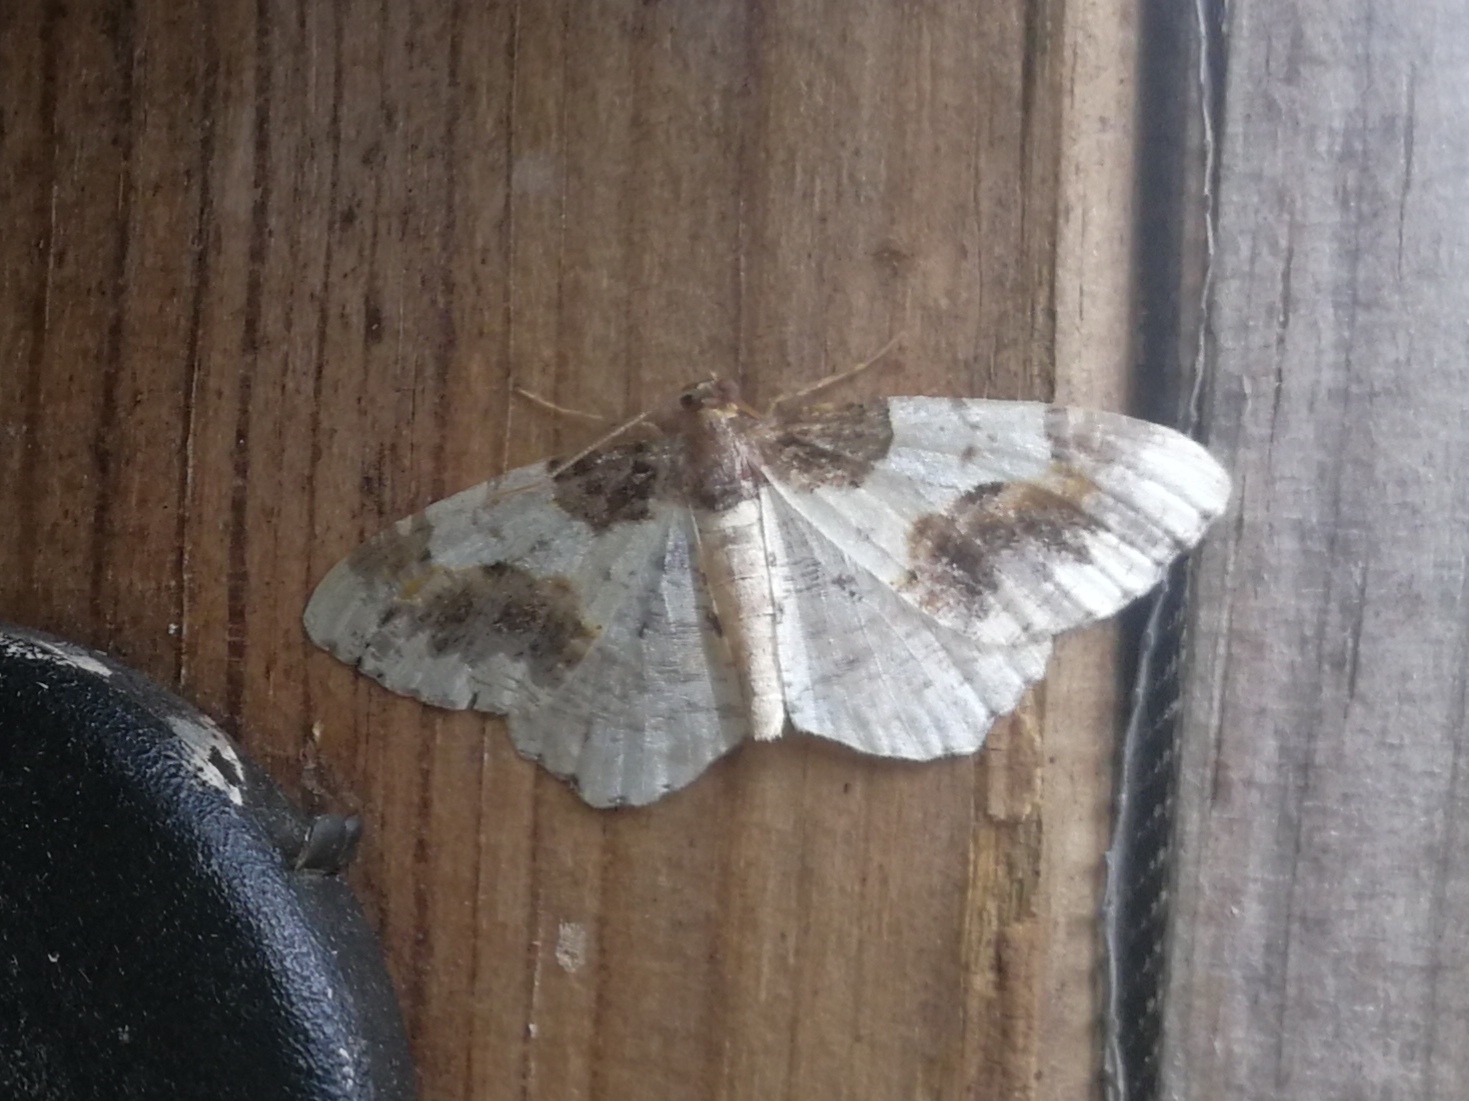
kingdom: Animalia
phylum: Arthropoda
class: Insecta
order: Lepidoptera
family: Geometridae
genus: Ligdia
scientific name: Ligdia adustata
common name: Scorched carpet
